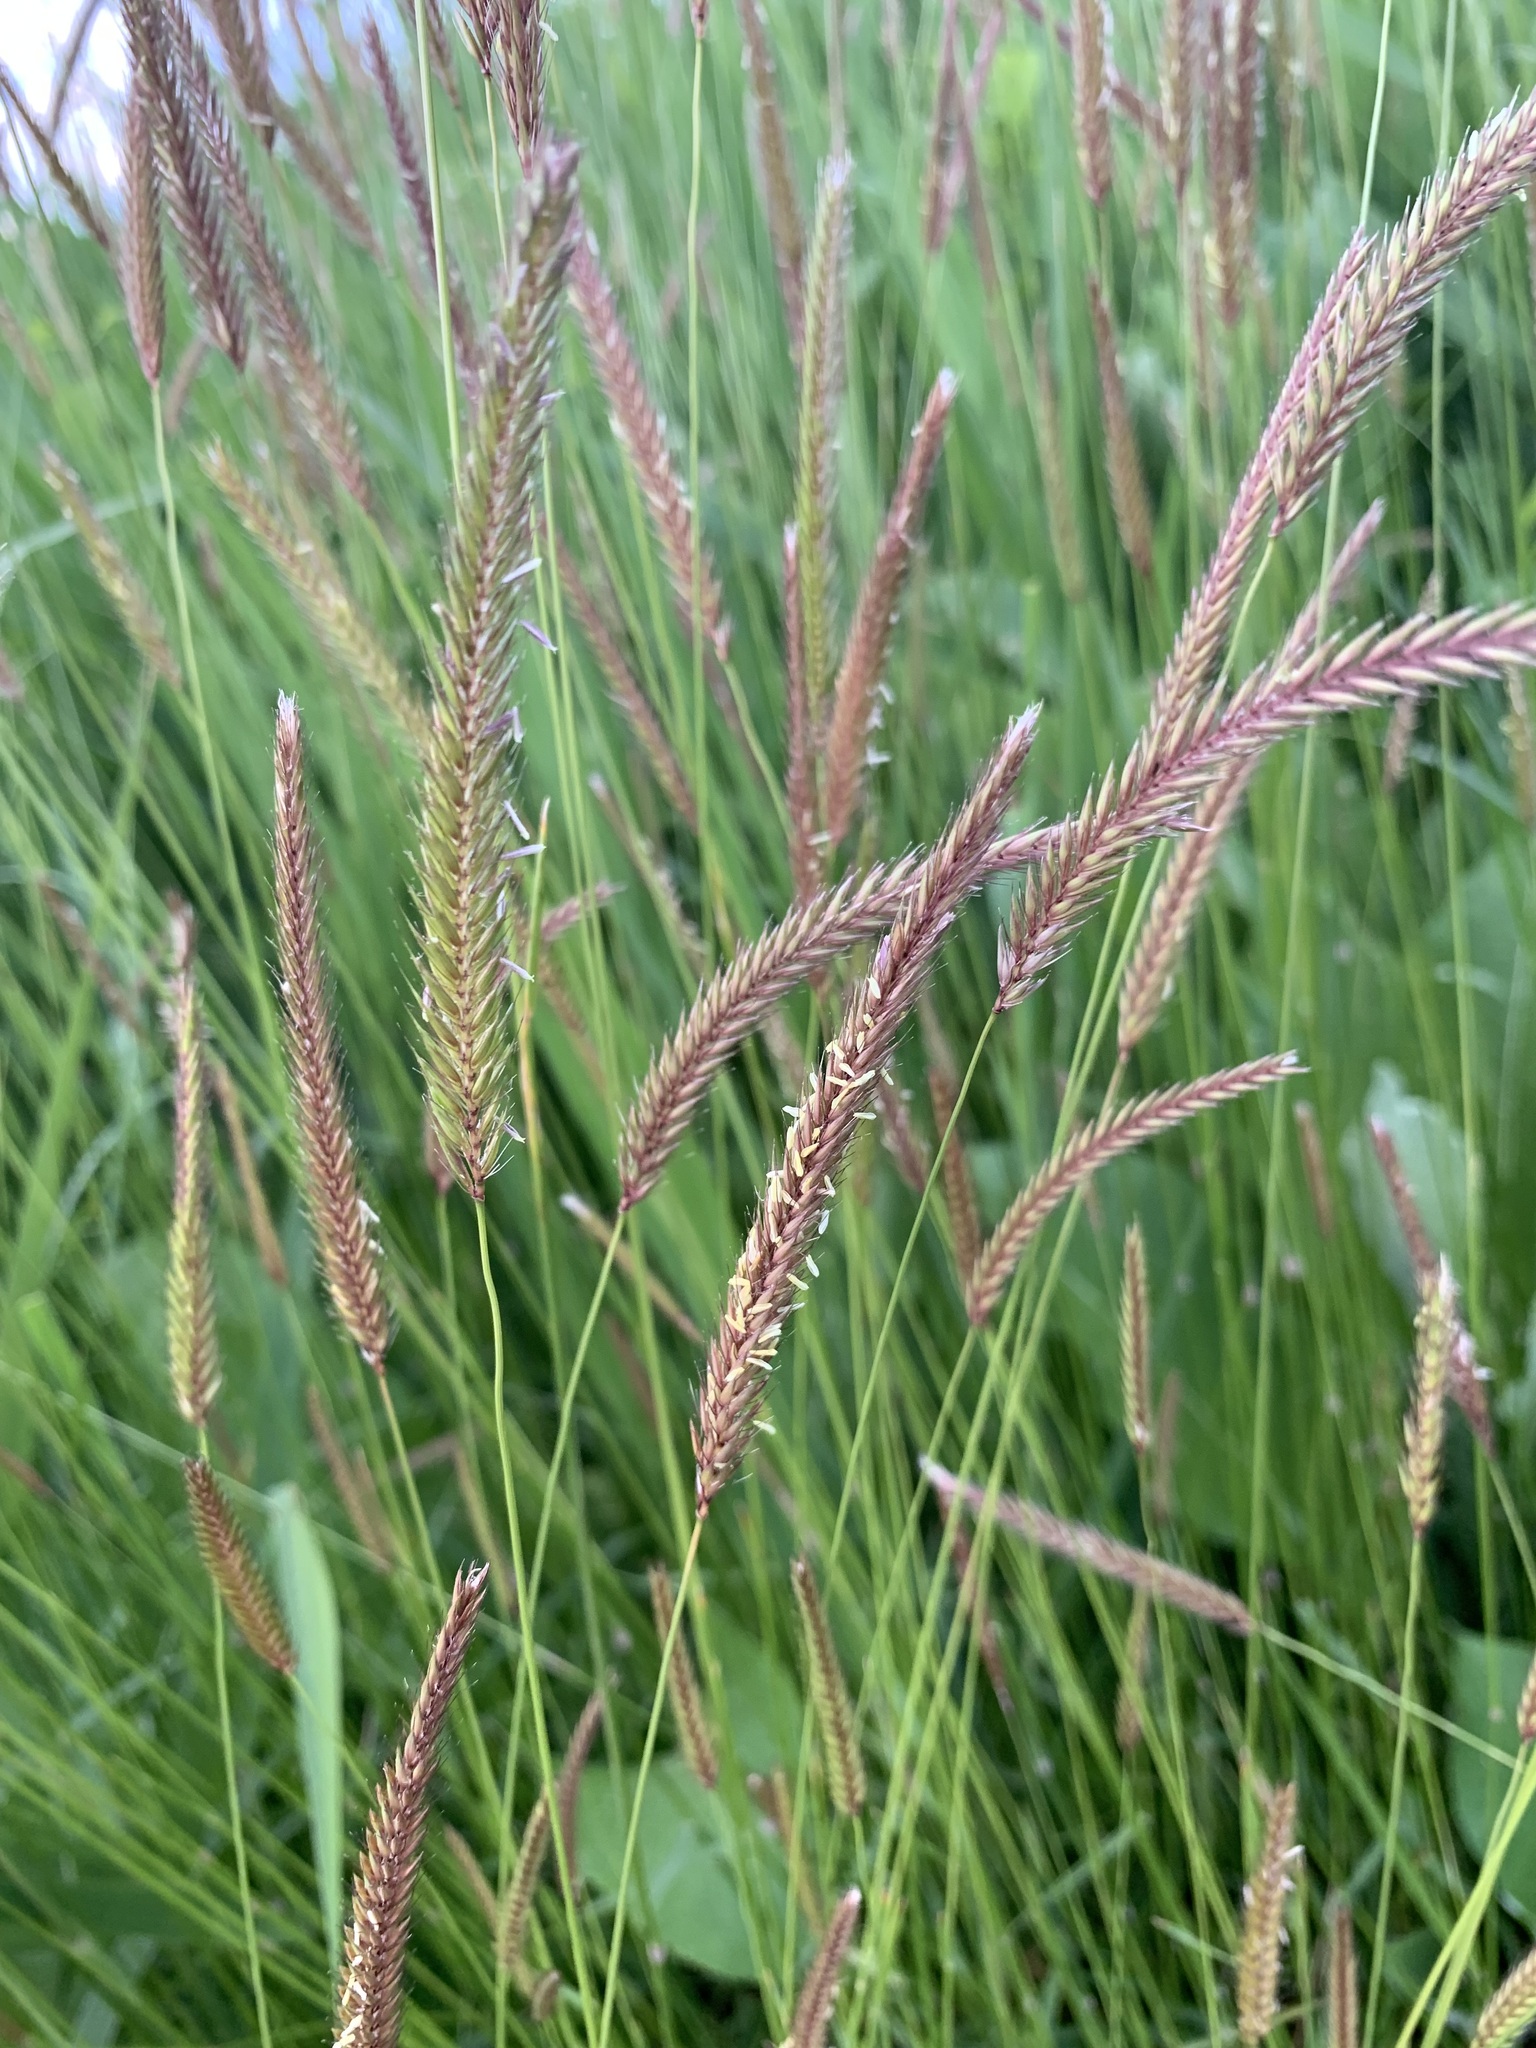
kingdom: Plantae
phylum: Tracheophyta
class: Liliopsida
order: Poales
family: Poaceae
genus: Hordeum
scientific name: Hordeum brevisubulatum
